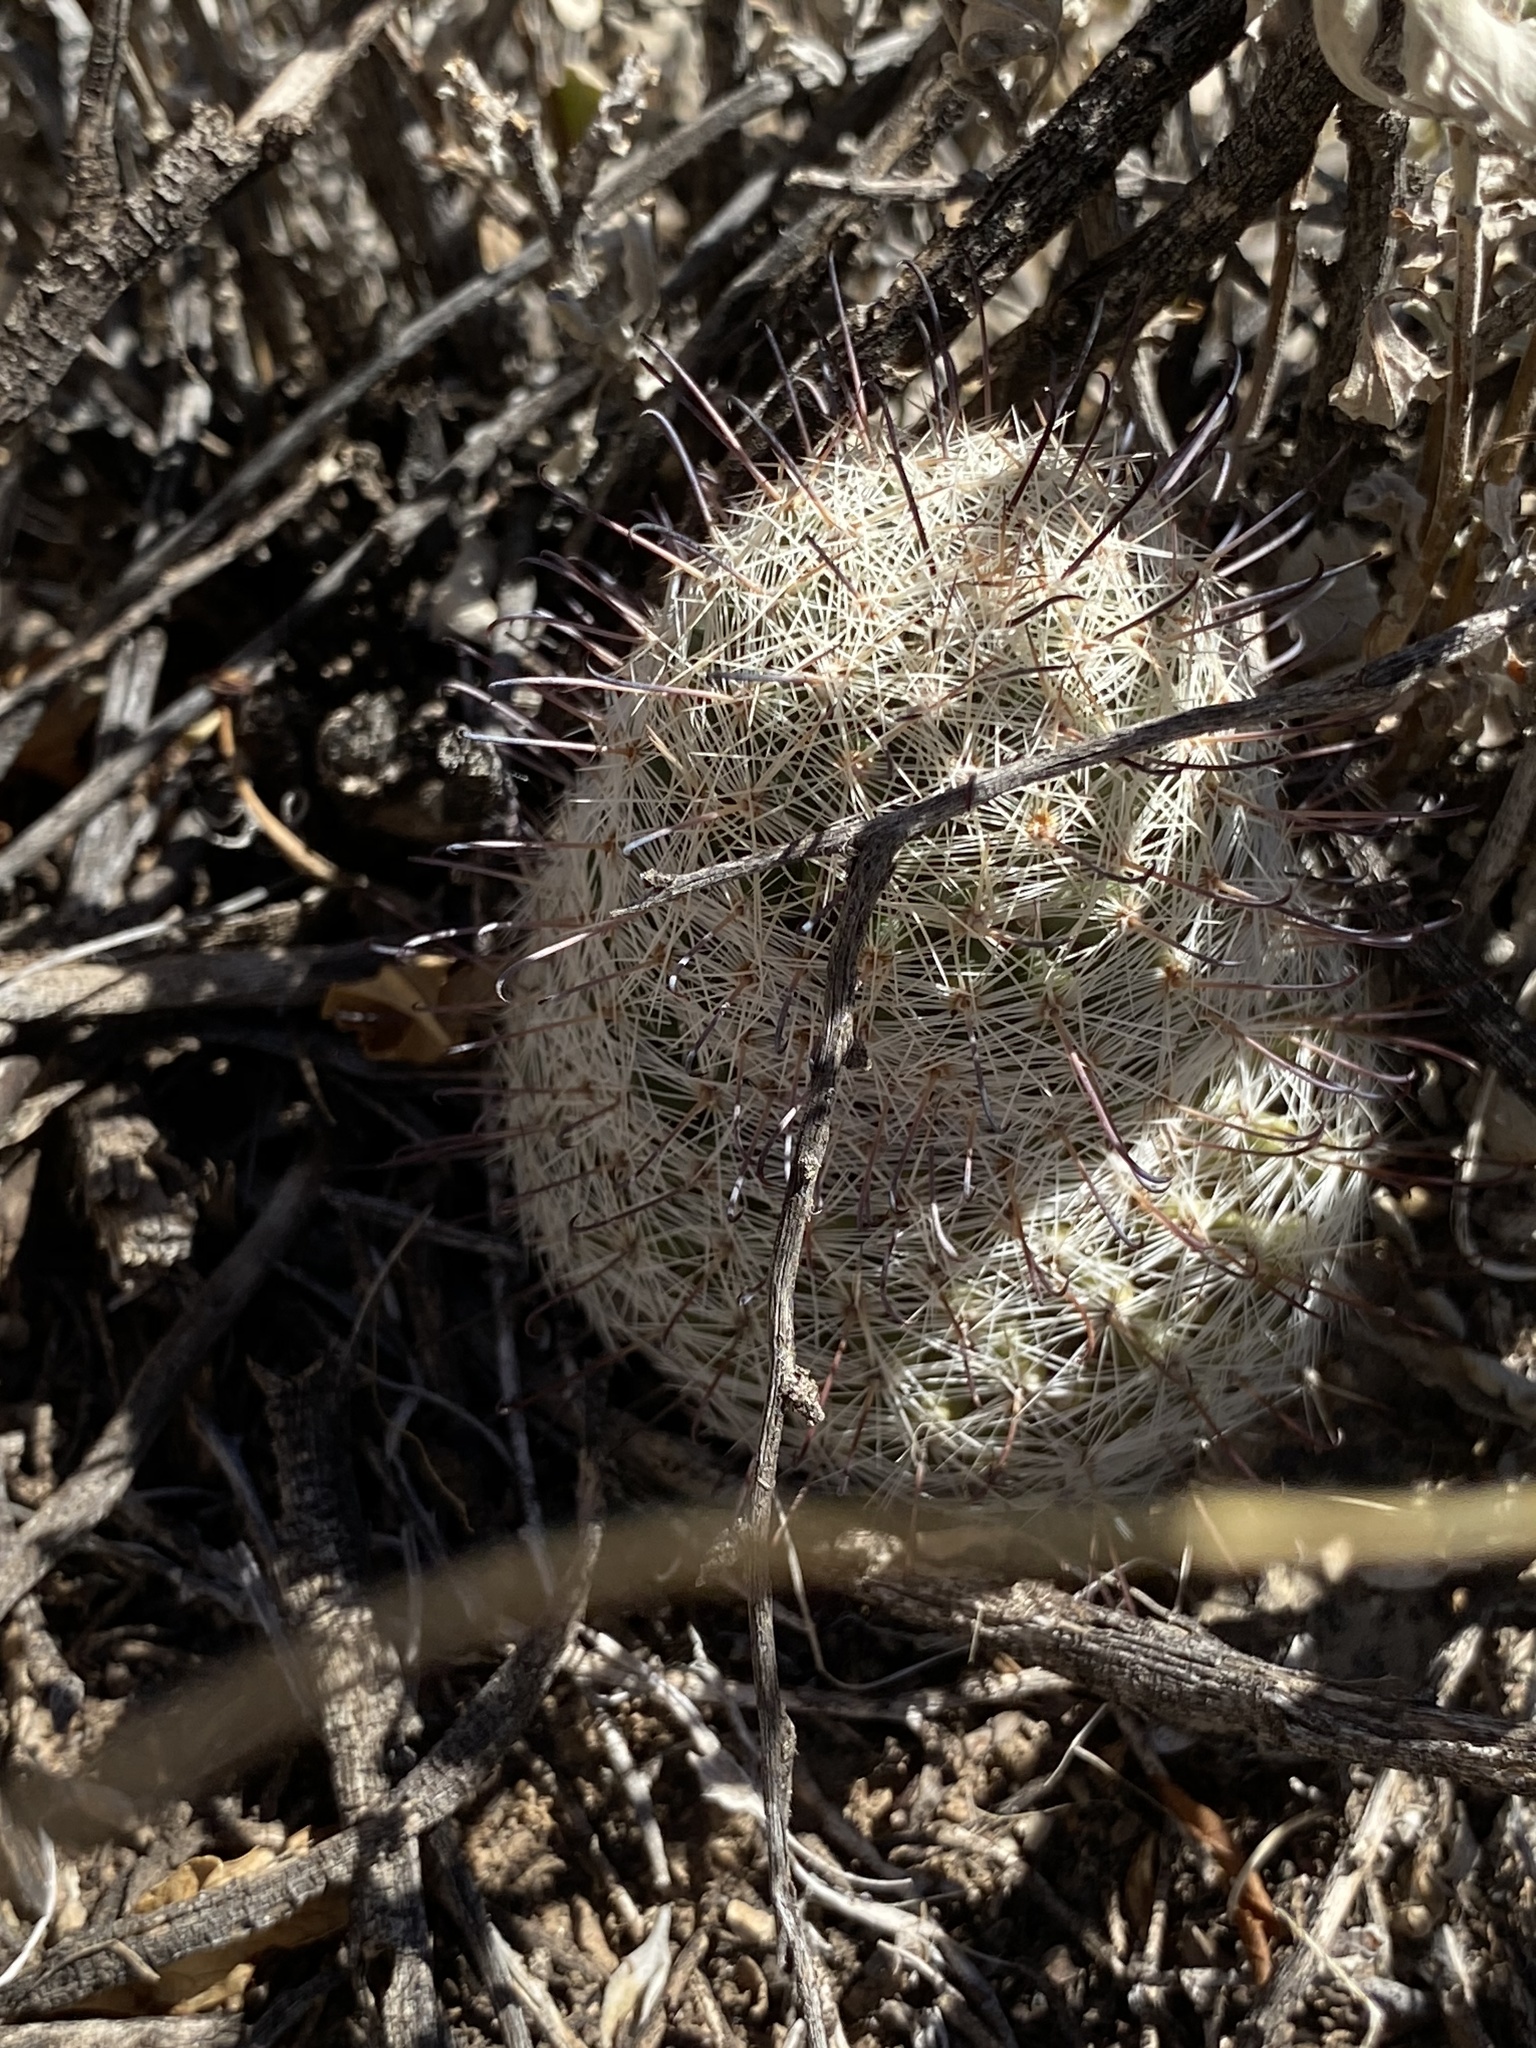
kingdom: Plantae
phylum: Tracheophyta
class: Magnoliopsida
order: Caryophyllales
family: Cactaceae
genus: Cochemiea
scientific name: Cochemiea grahamii
